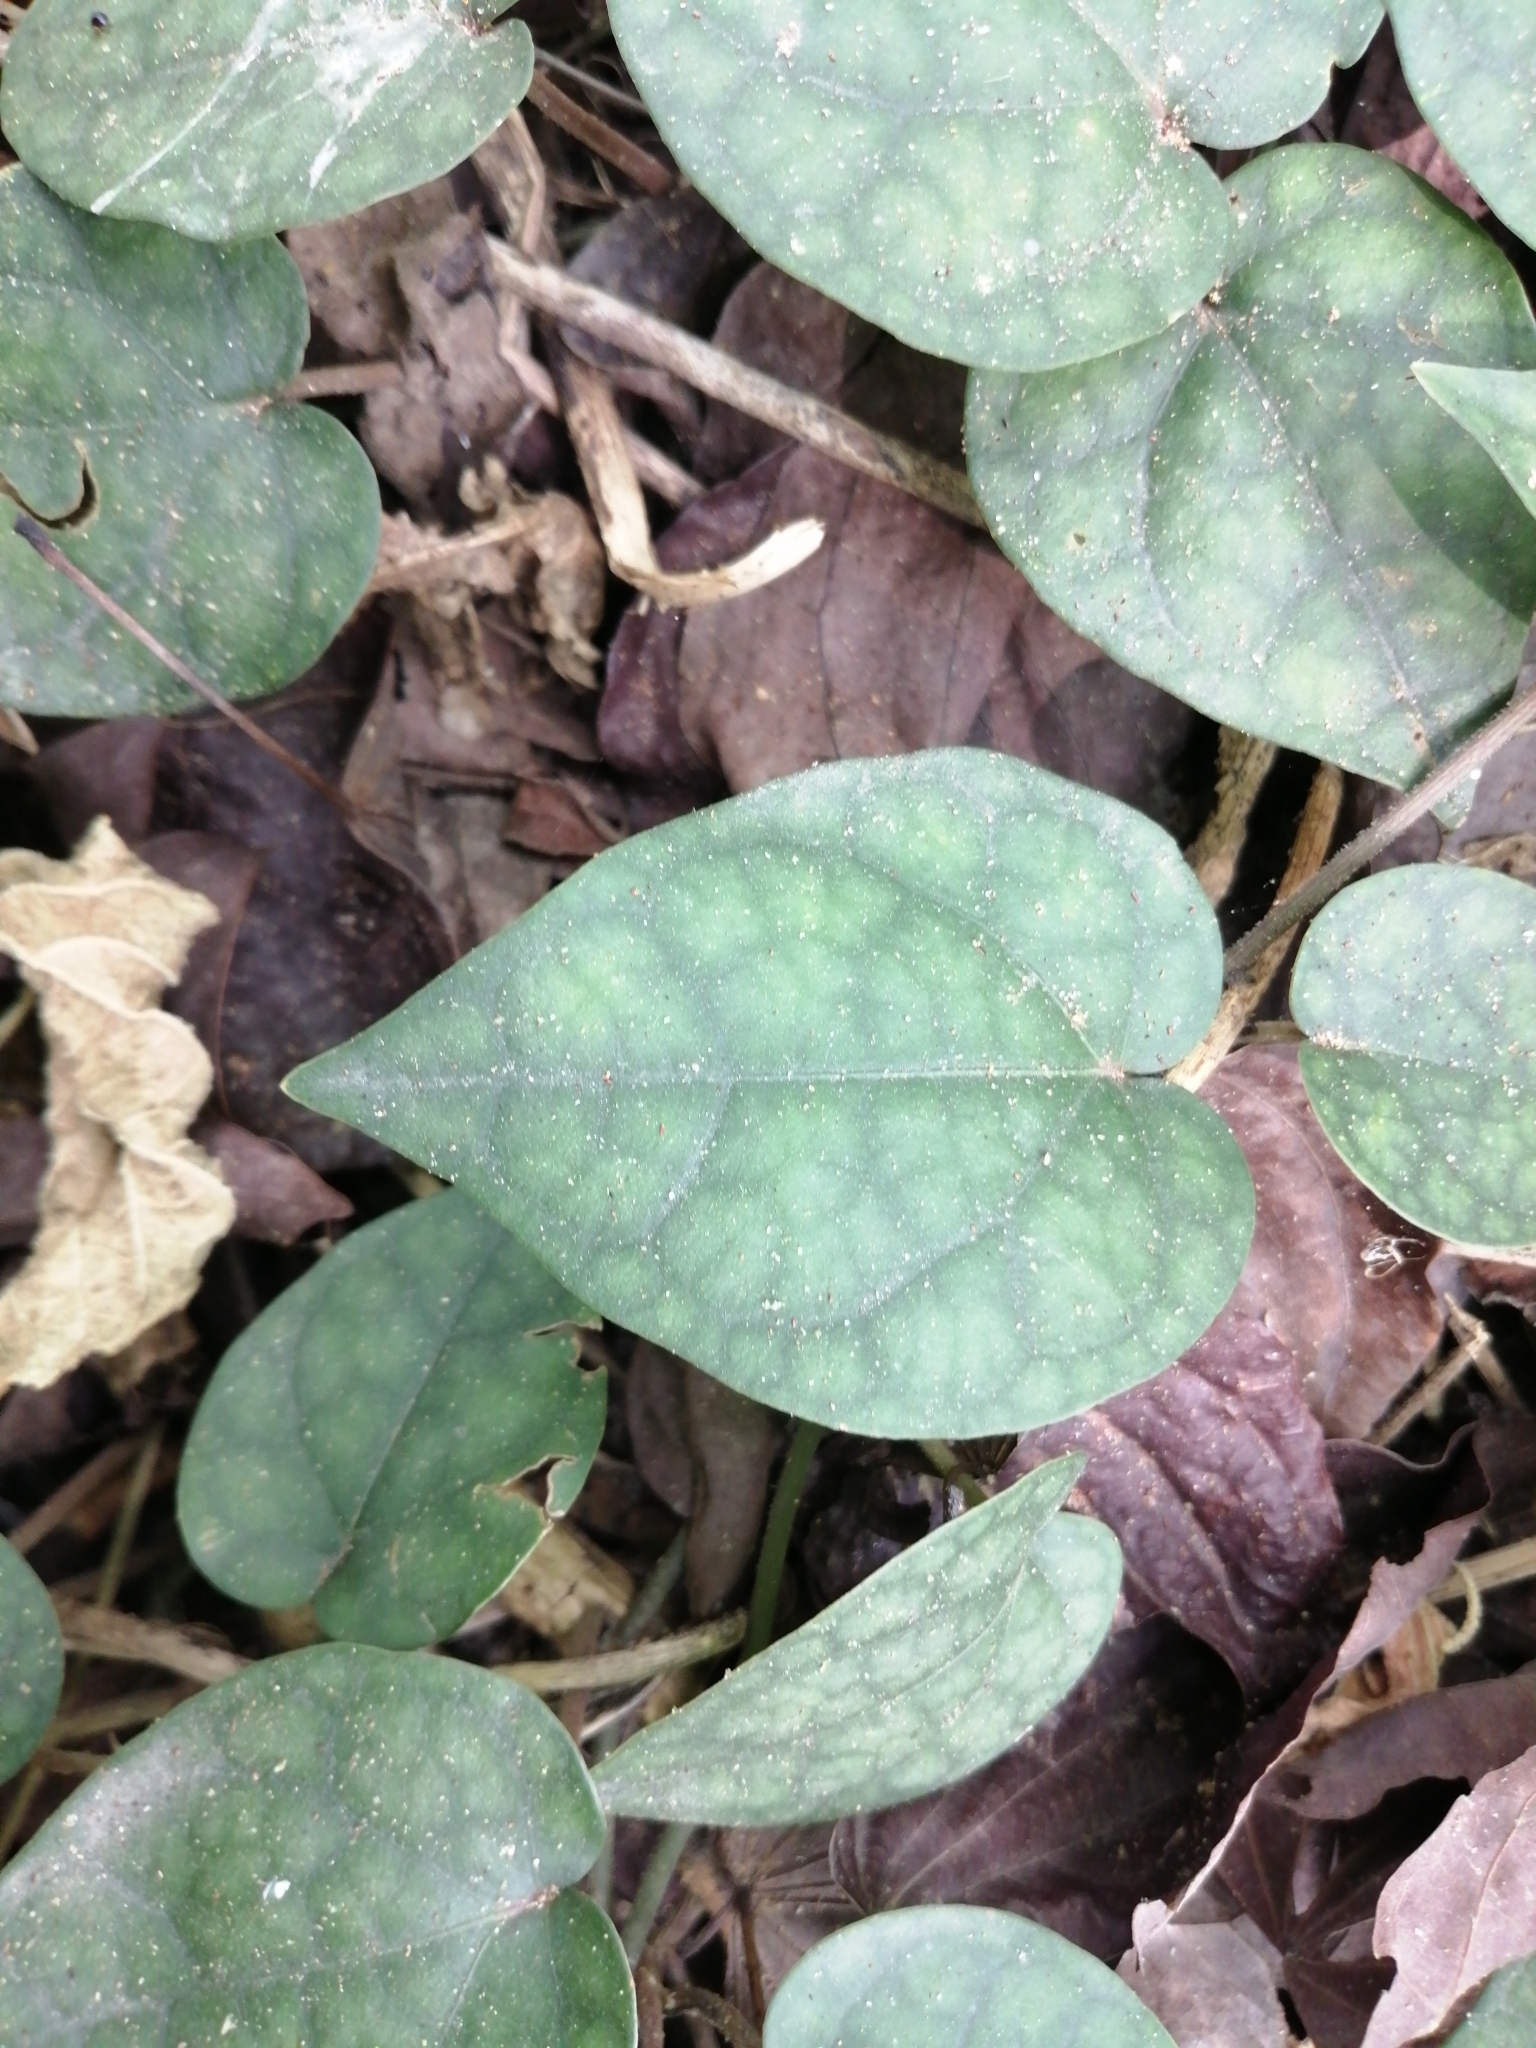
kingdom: Plantae
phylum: Tracheophyta
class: Magnoliopsida
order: Piperales
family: Piperaceae
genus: Piper
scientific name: Piper kadsura
